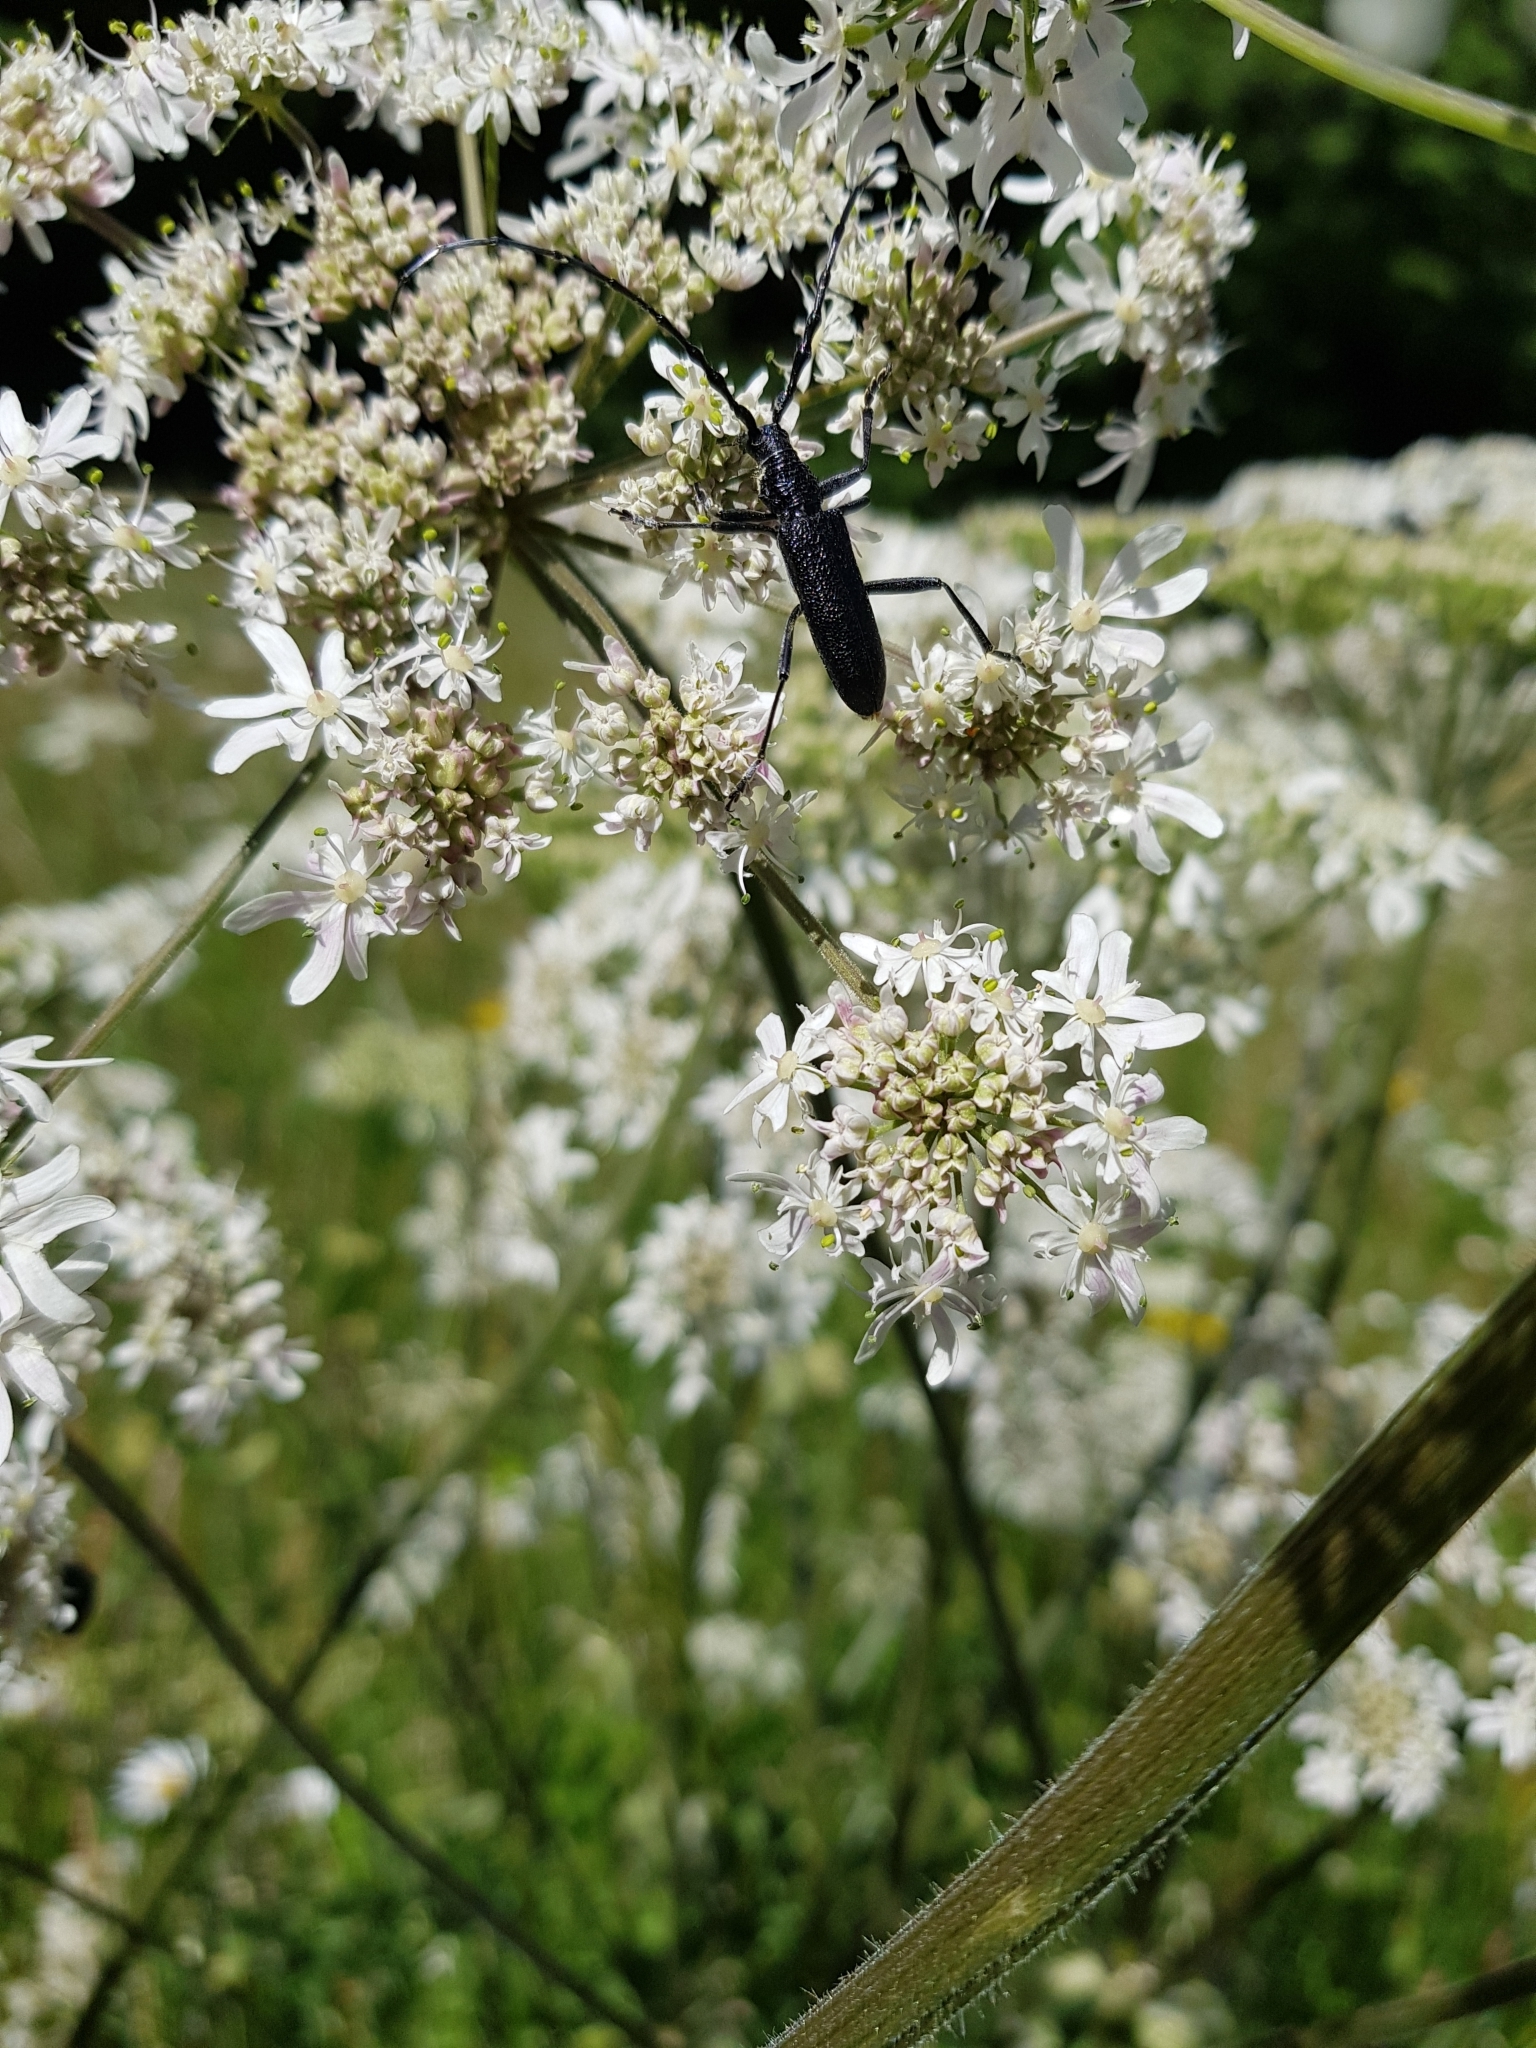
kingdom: Animalia
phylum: Arthropoda
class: Insecta
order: Coleoptera
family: Cerambycidae
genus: Cerambyx
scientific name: Cerambyx scopolii
